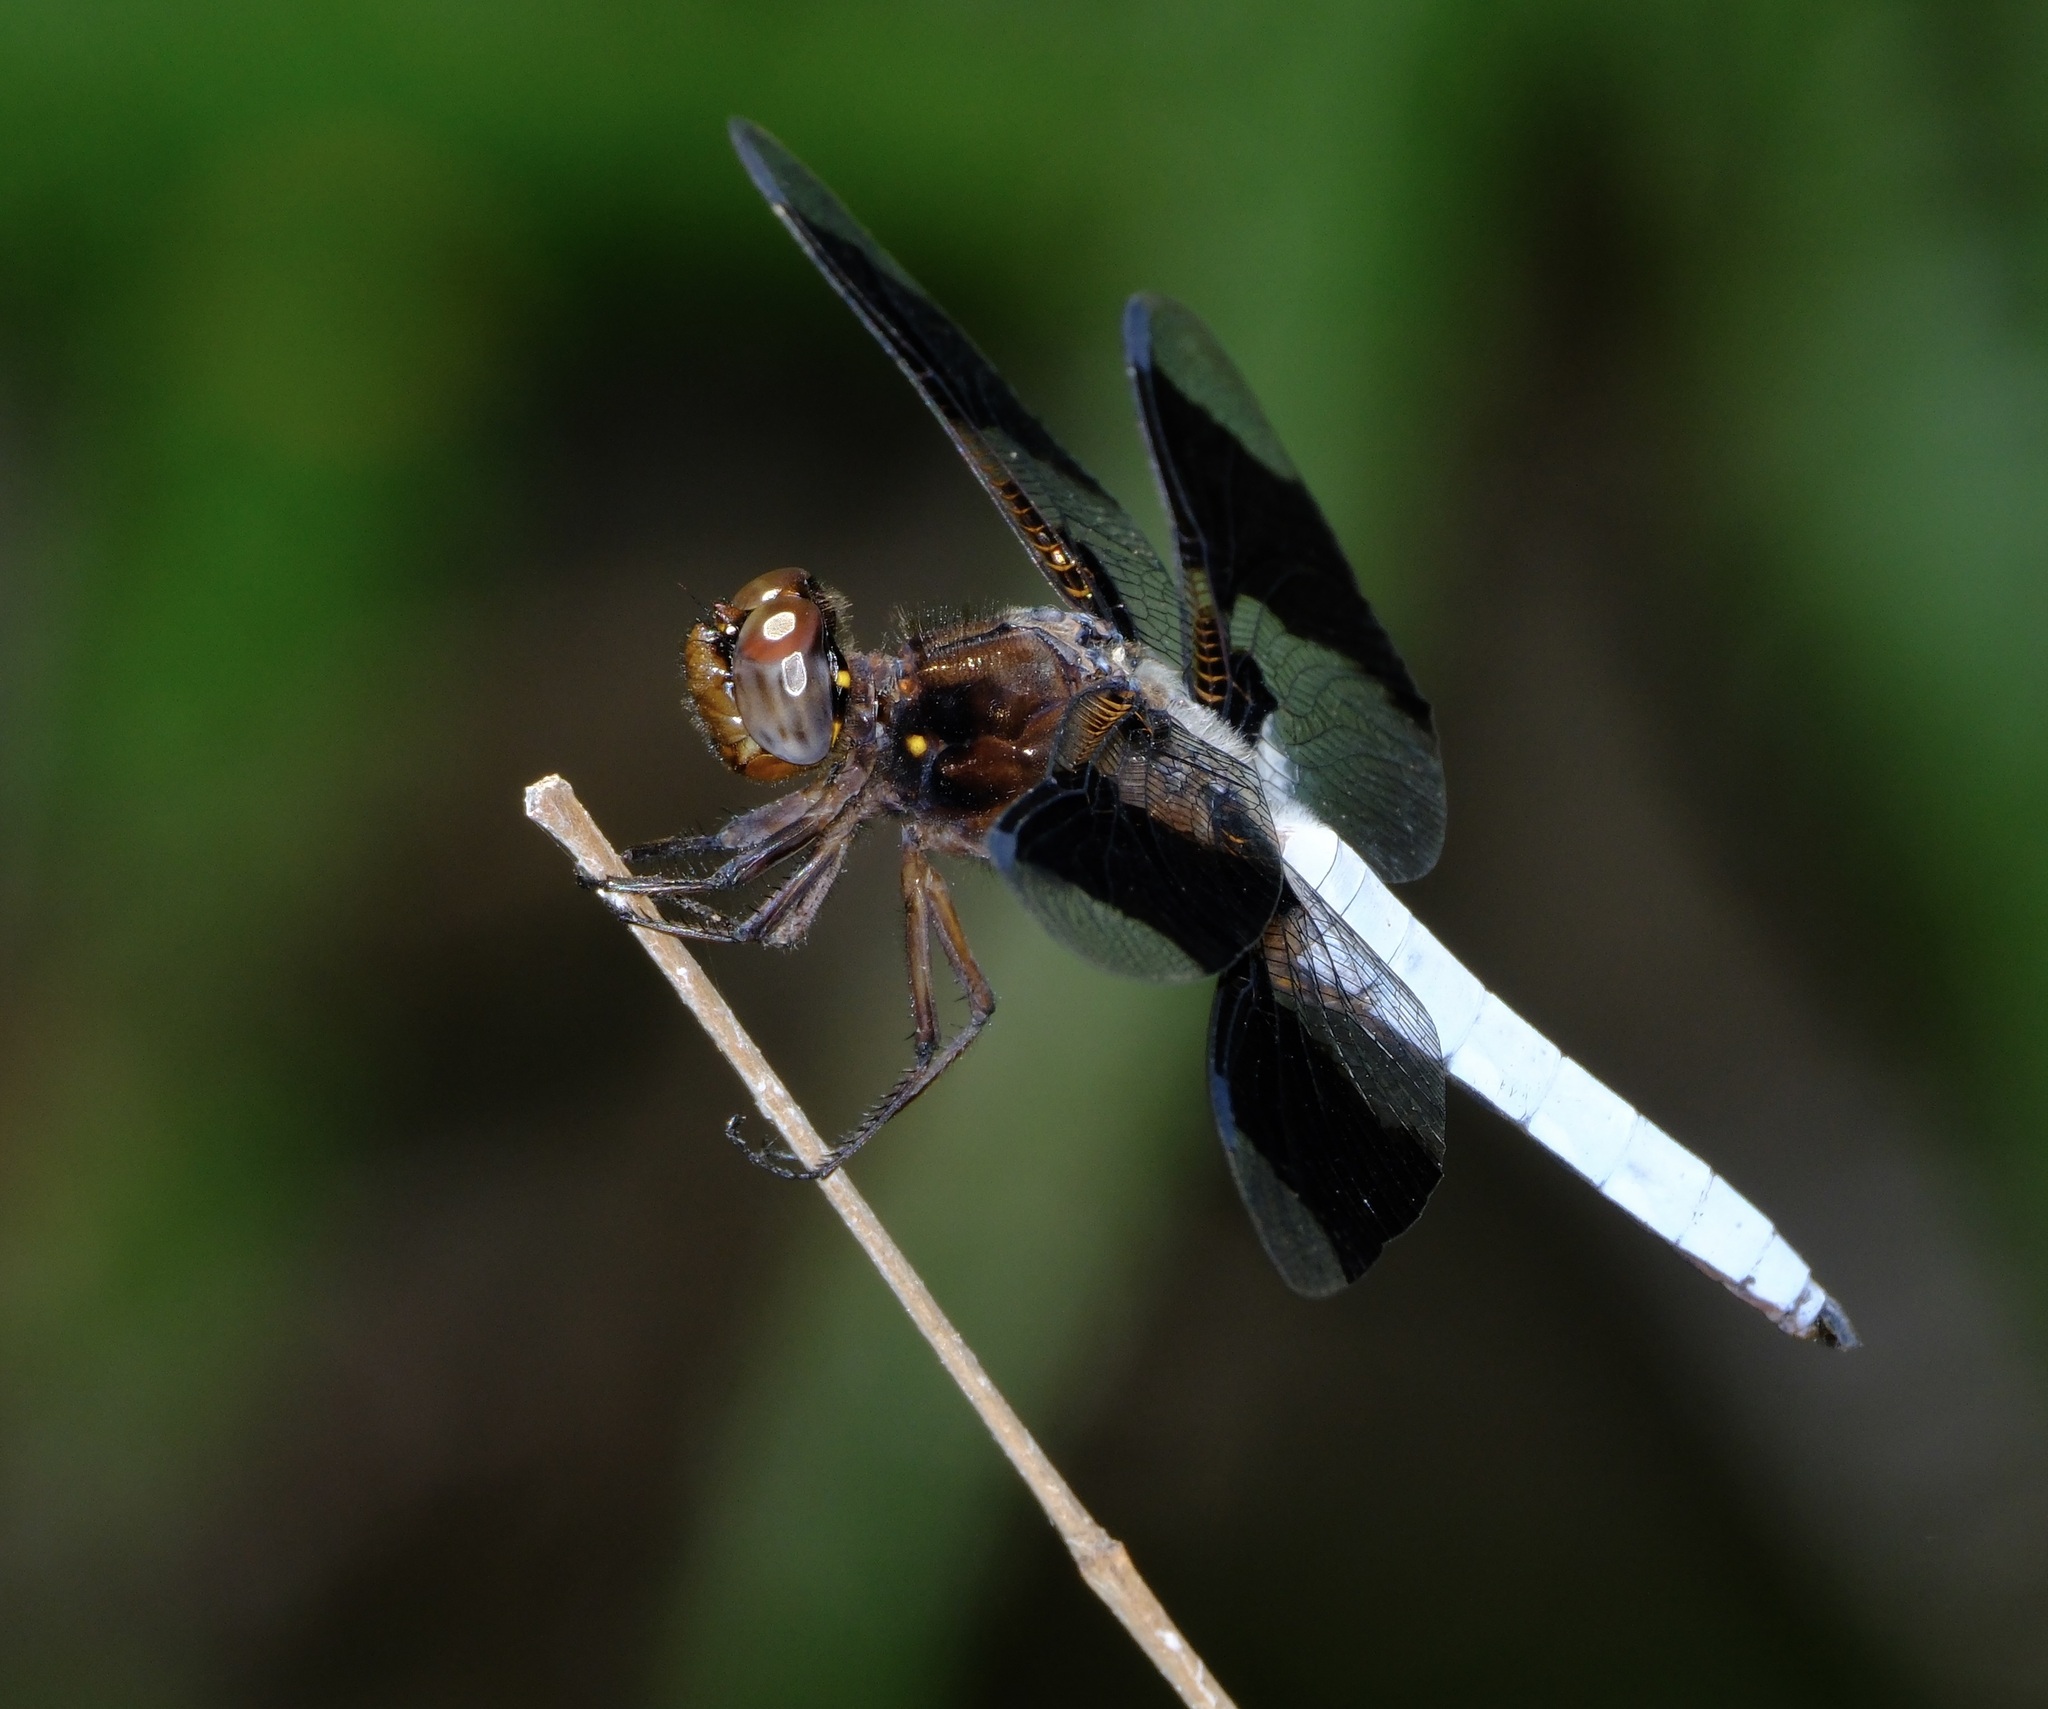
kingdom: Animalia
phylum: Arthropoda
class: Insecta
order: Odonata
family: Libellulidae
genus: Plathemis
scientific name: Plathemis lydia
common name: Common whitetail
